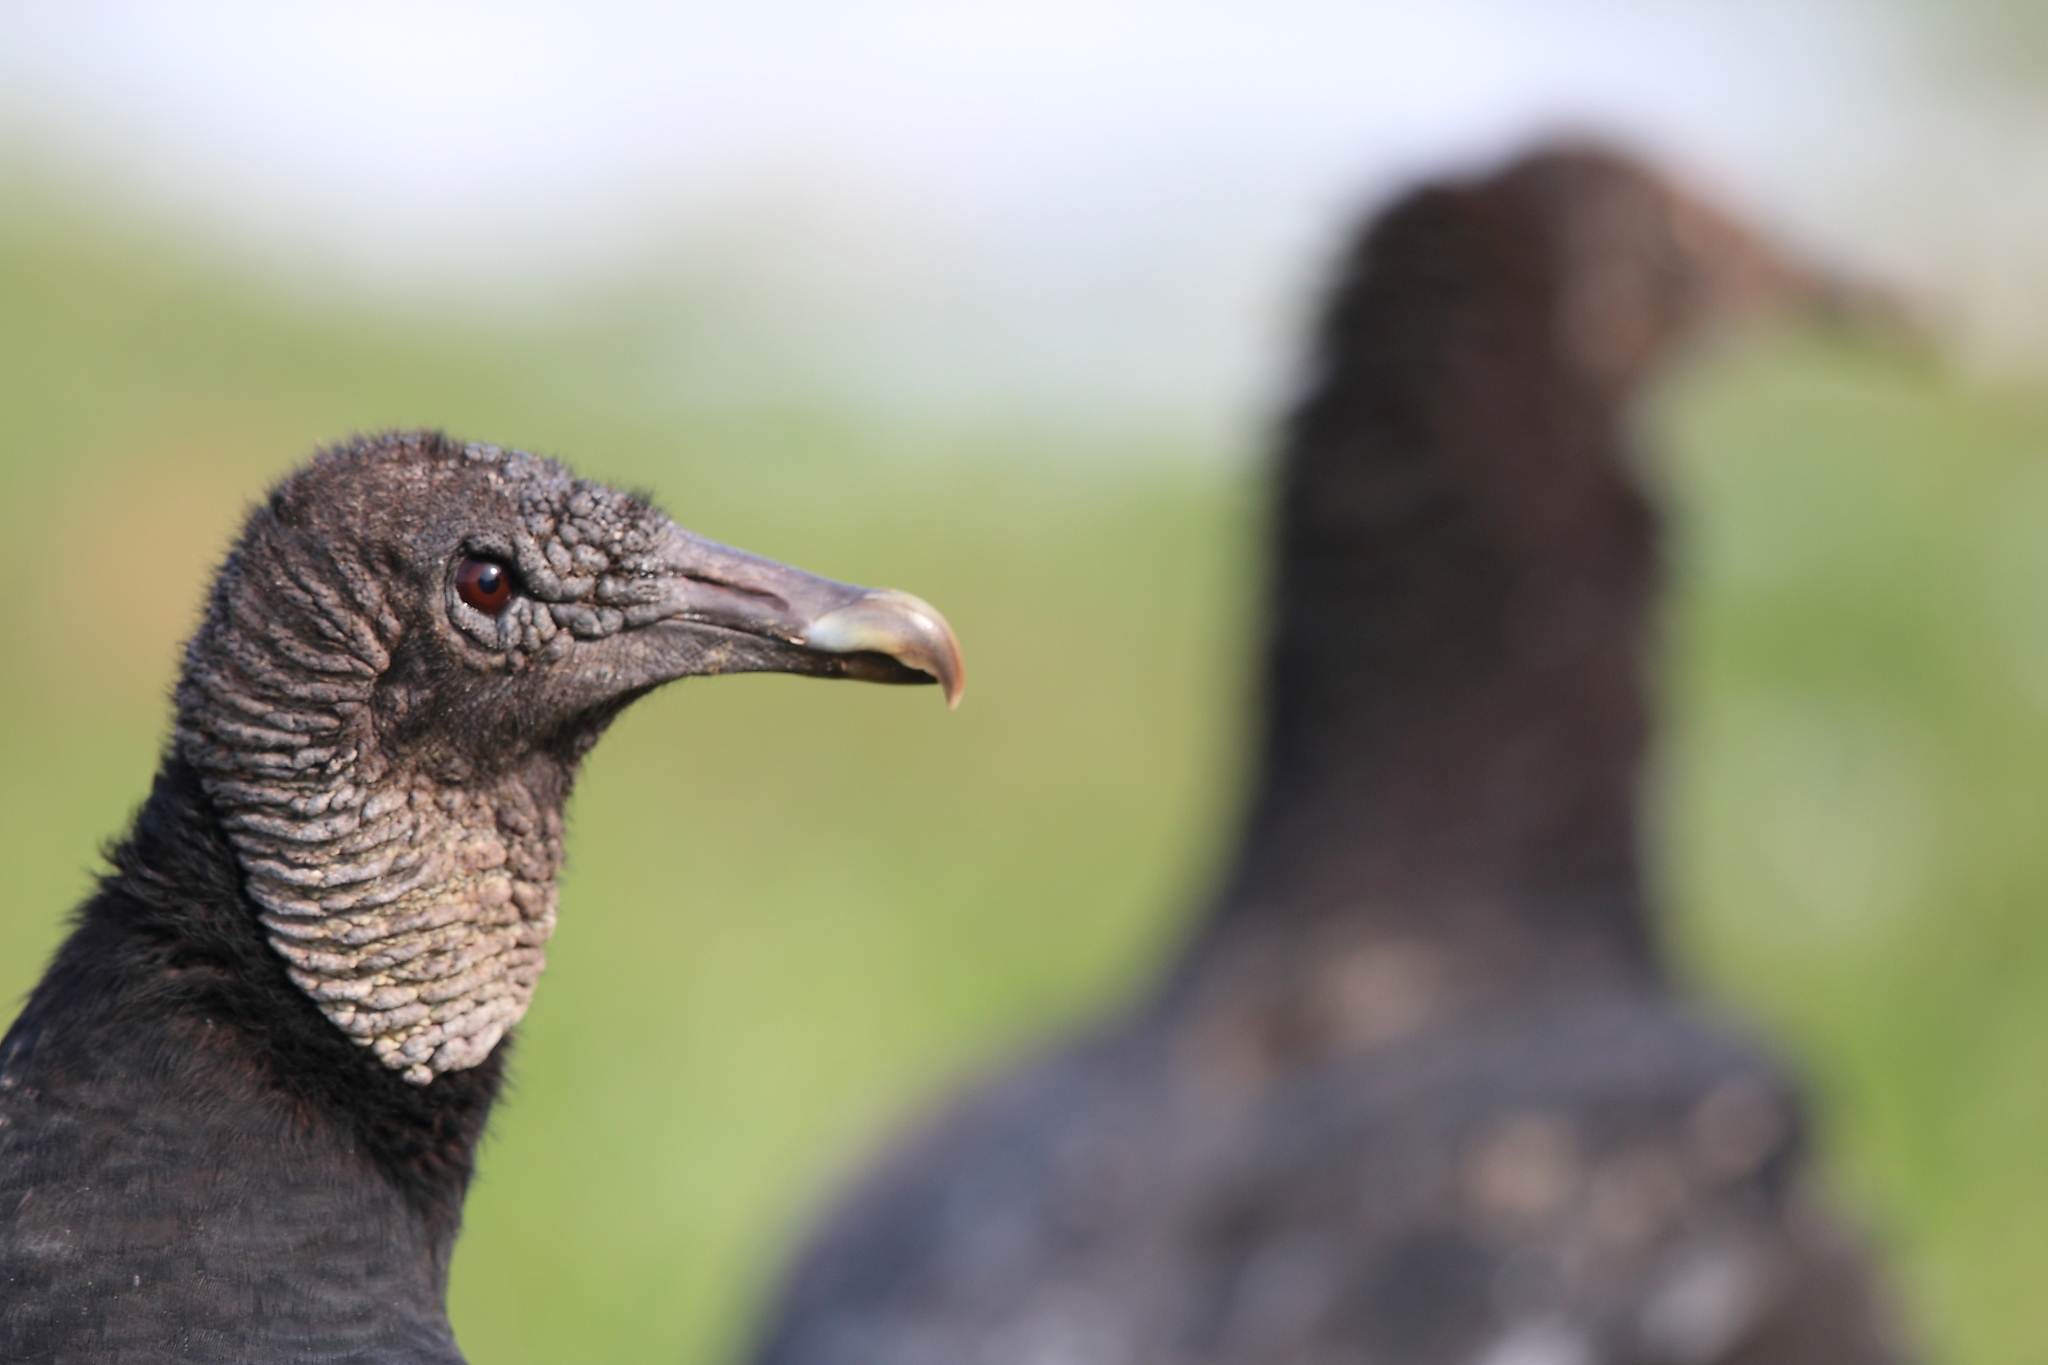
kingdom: Animalia
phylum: Chordata
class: Aves
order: Accipitriformes
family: Cathartidae
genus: Coragyps
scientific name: Coragyps atratus
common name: Black vulture
